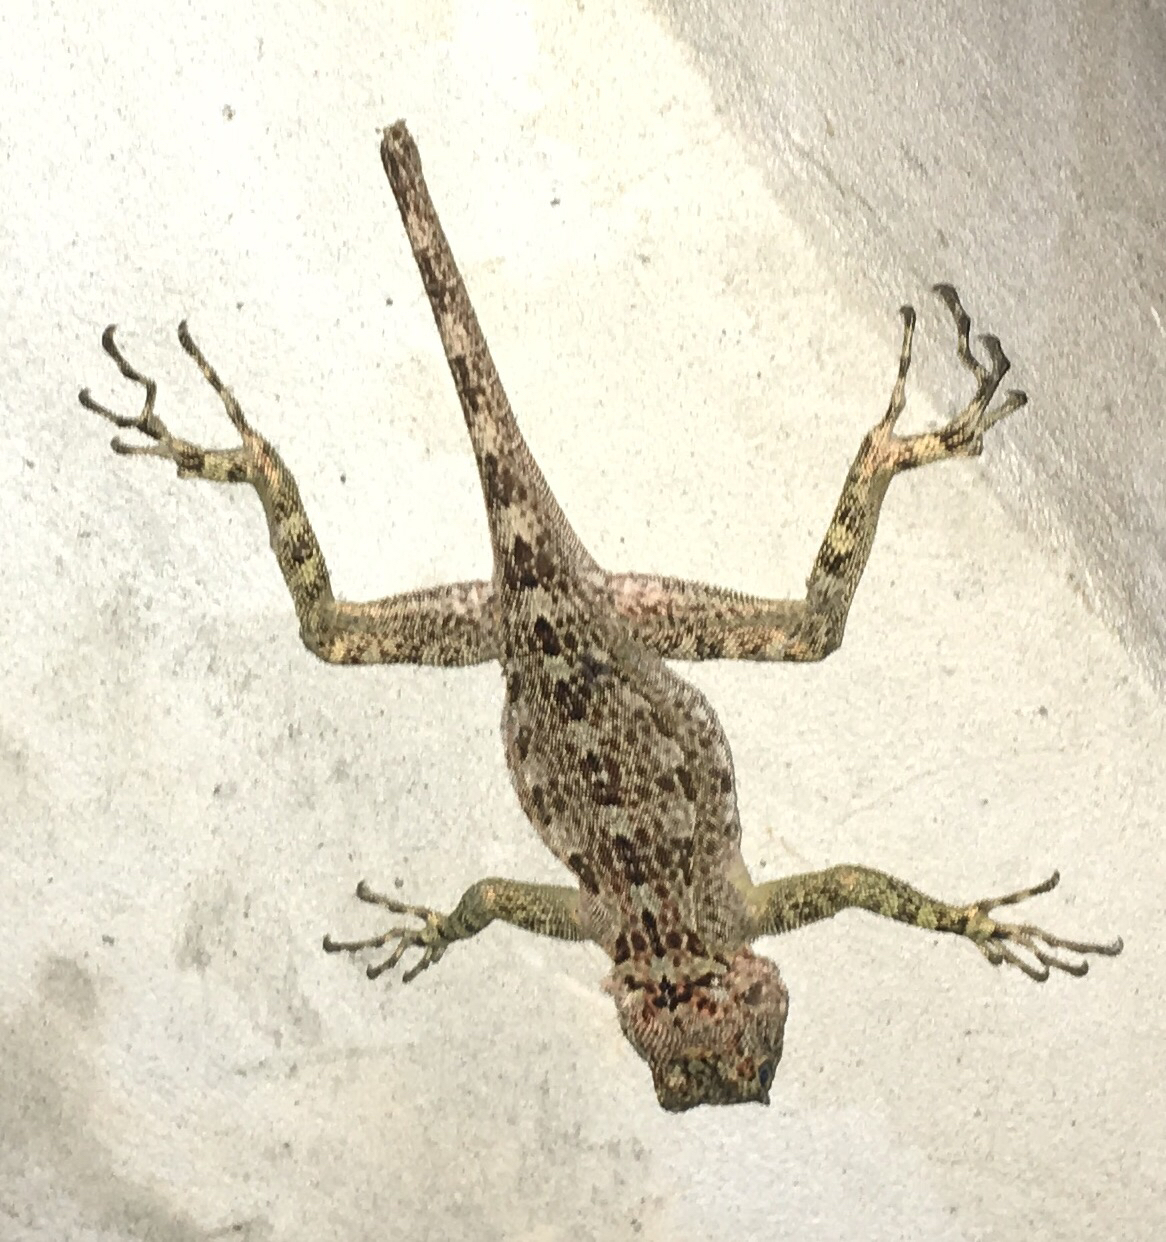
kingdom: Animalia
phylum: Chordata
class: Squamata
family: Tropiduridae
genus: Plica
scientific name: Plica caribeana
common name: Caribbean treerunner
